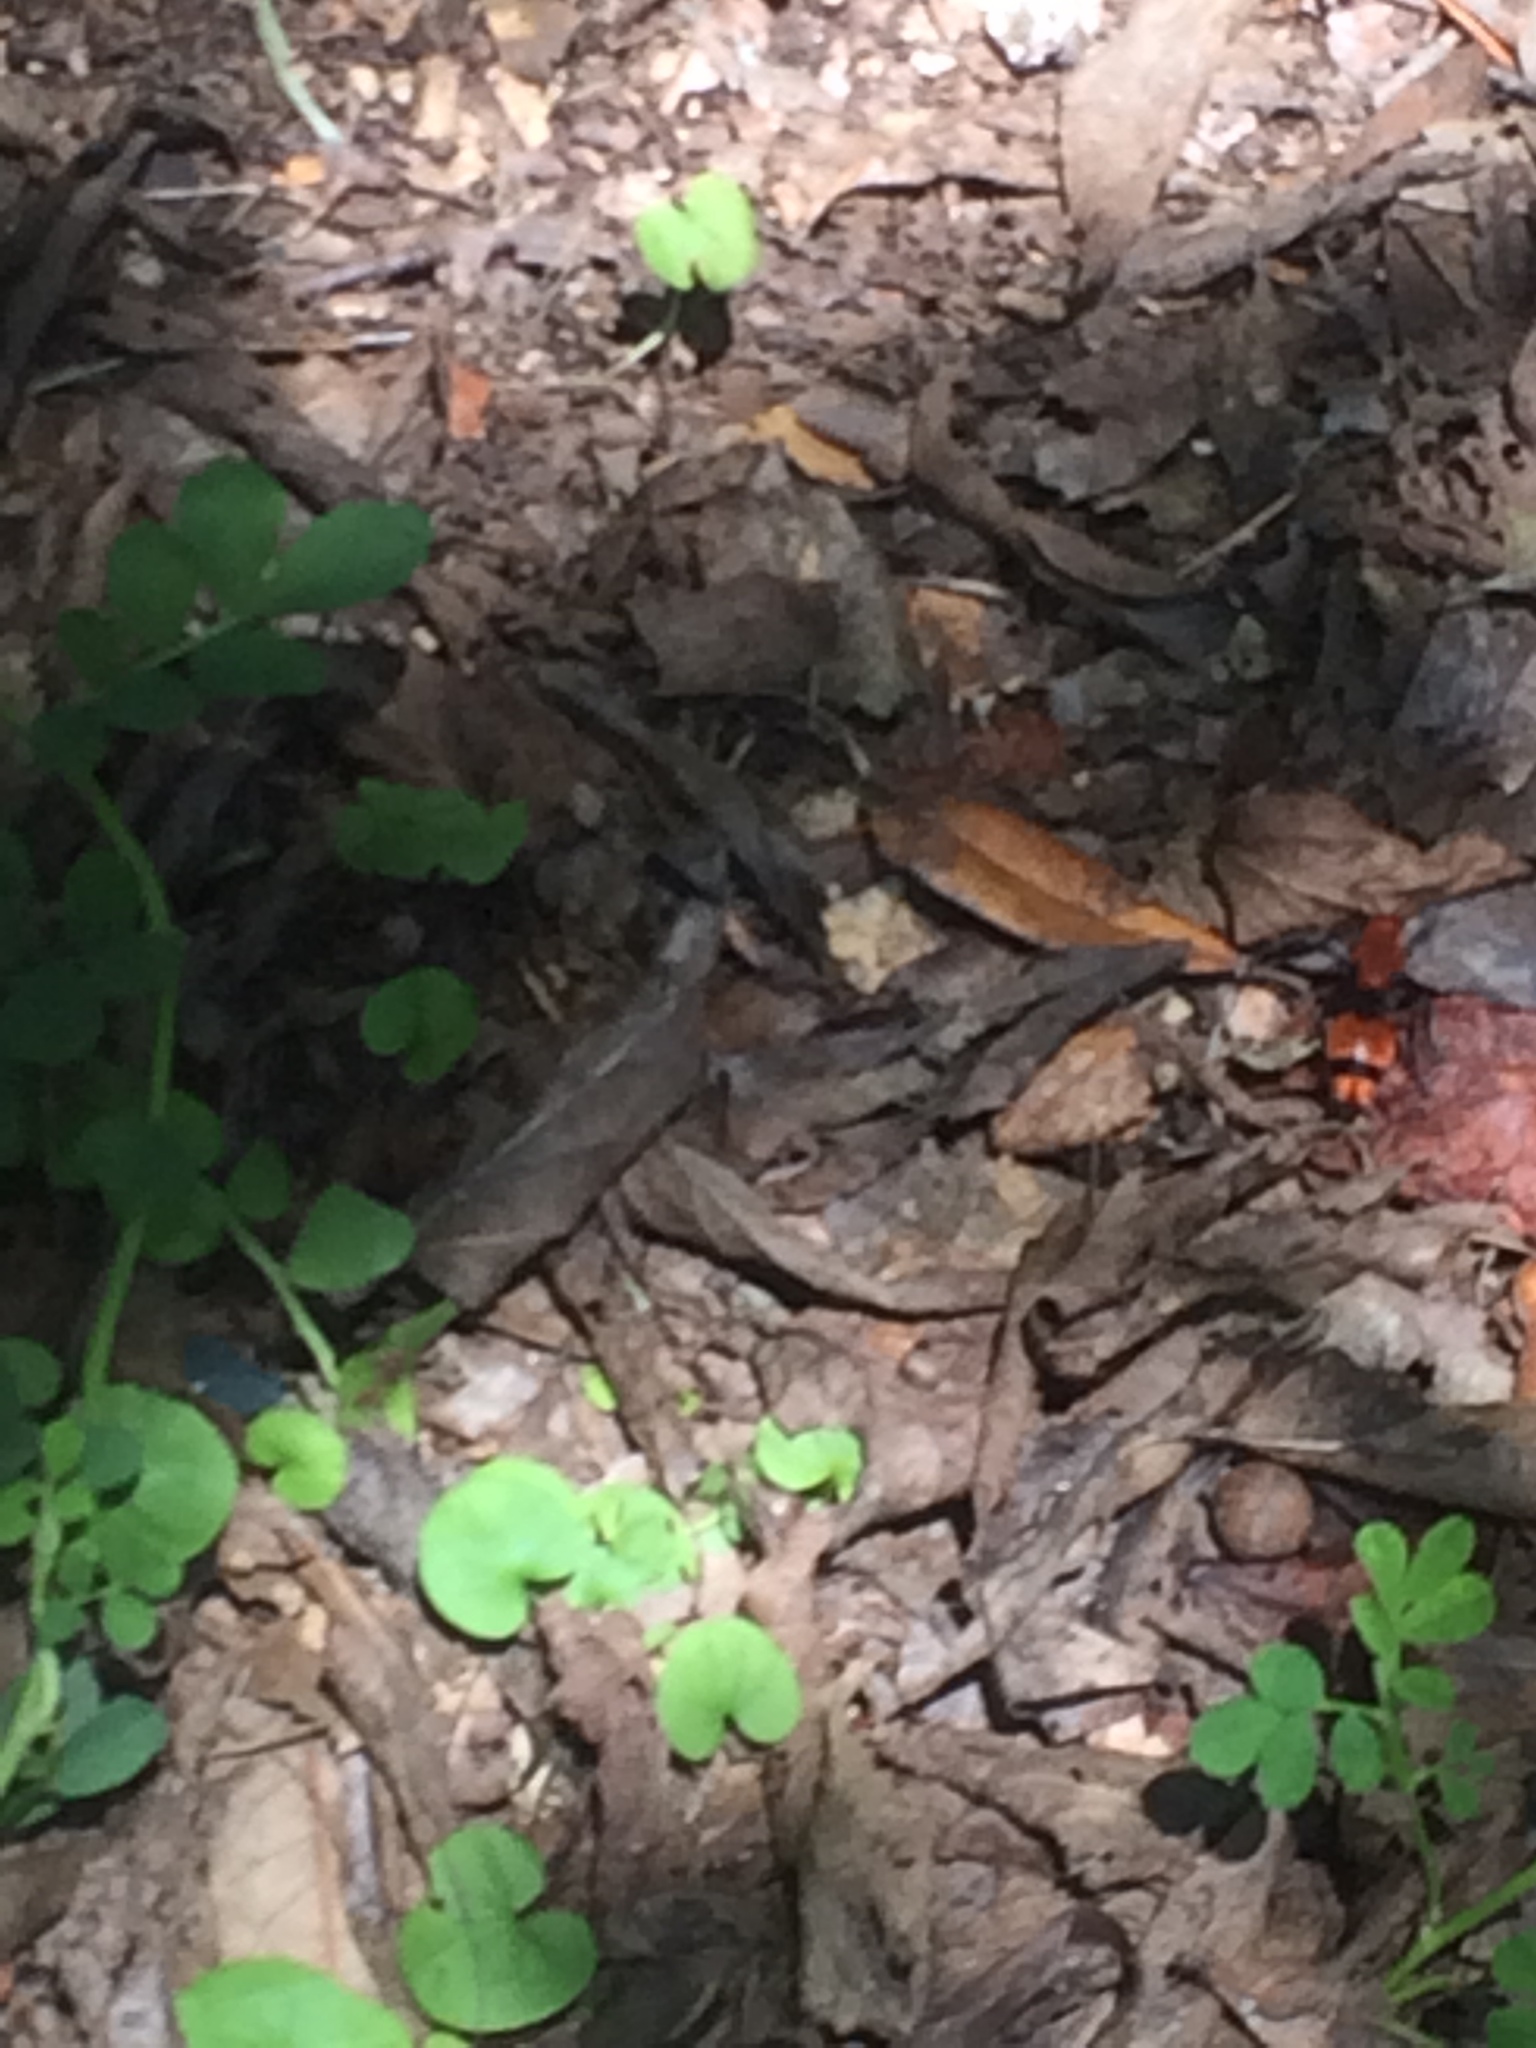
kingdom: Animalia
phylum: Arthropoda
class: Insecta
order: Hymenoptera
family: Mutillidae
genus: Dasymutilla
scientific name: Dasymutilla occidentalis
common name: Common eastern velvet ant
